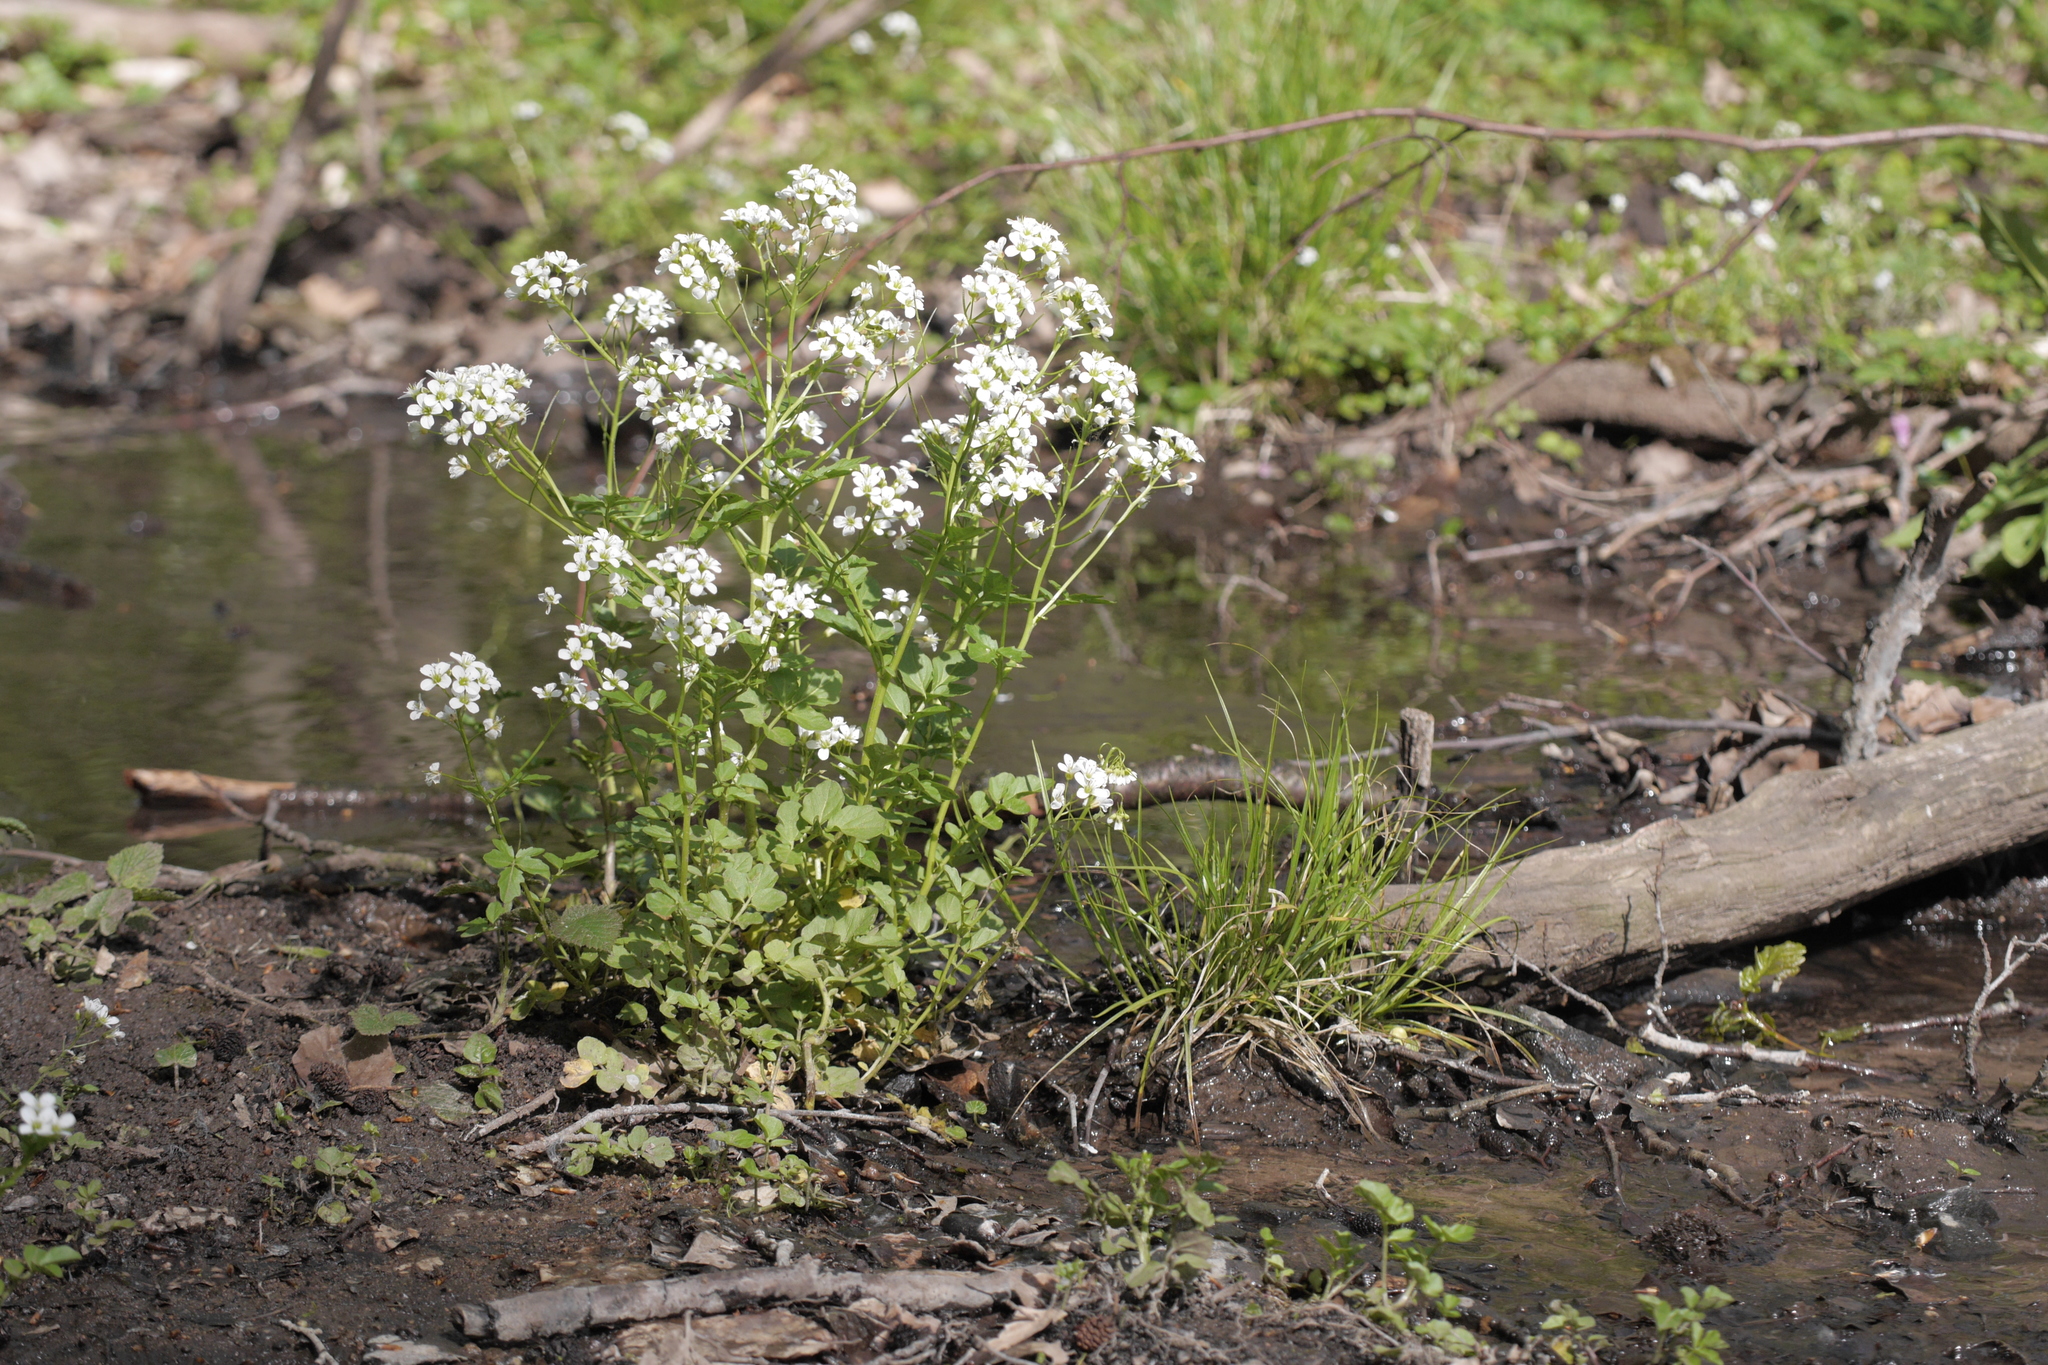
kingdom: Plantae
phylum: Tracheophyta
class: Magnoliopsida
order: Brassicales
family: Brassicaceae
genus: Cardamine
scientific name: Cardamine amara
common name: Large bitter-cress
